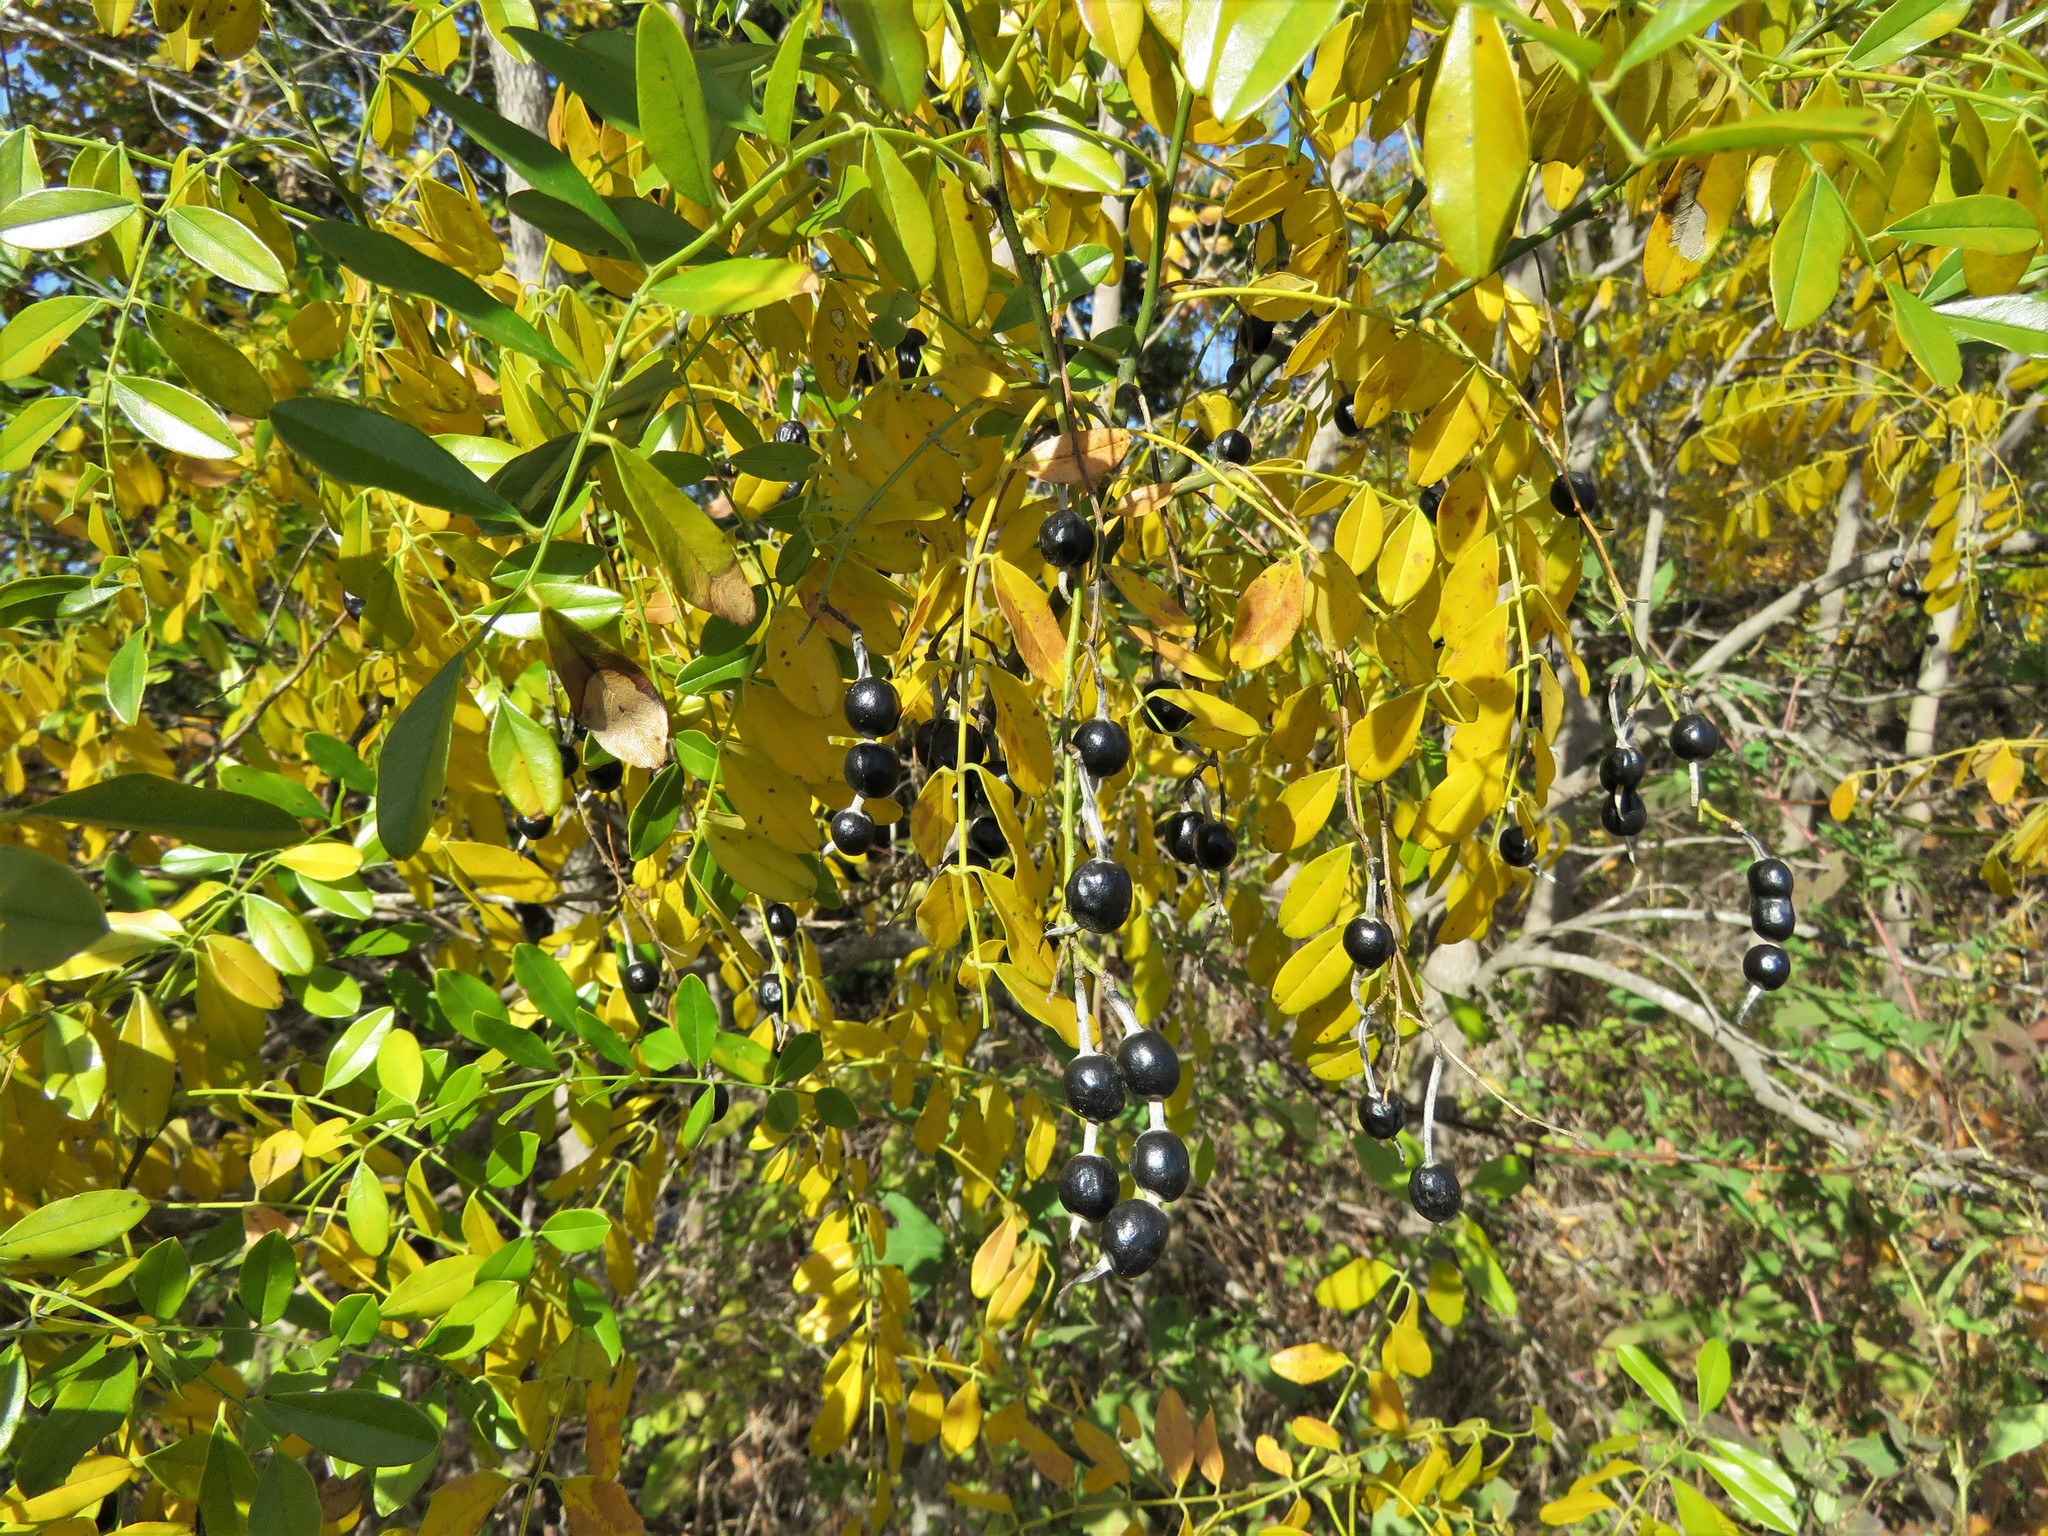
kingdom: Plantae
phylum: Tracheophyta
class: Magnoliopsida
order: Fabales
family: Fabaceae
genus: Styphnolobium
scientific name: Styphnolobium affine
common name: Texas sophora
